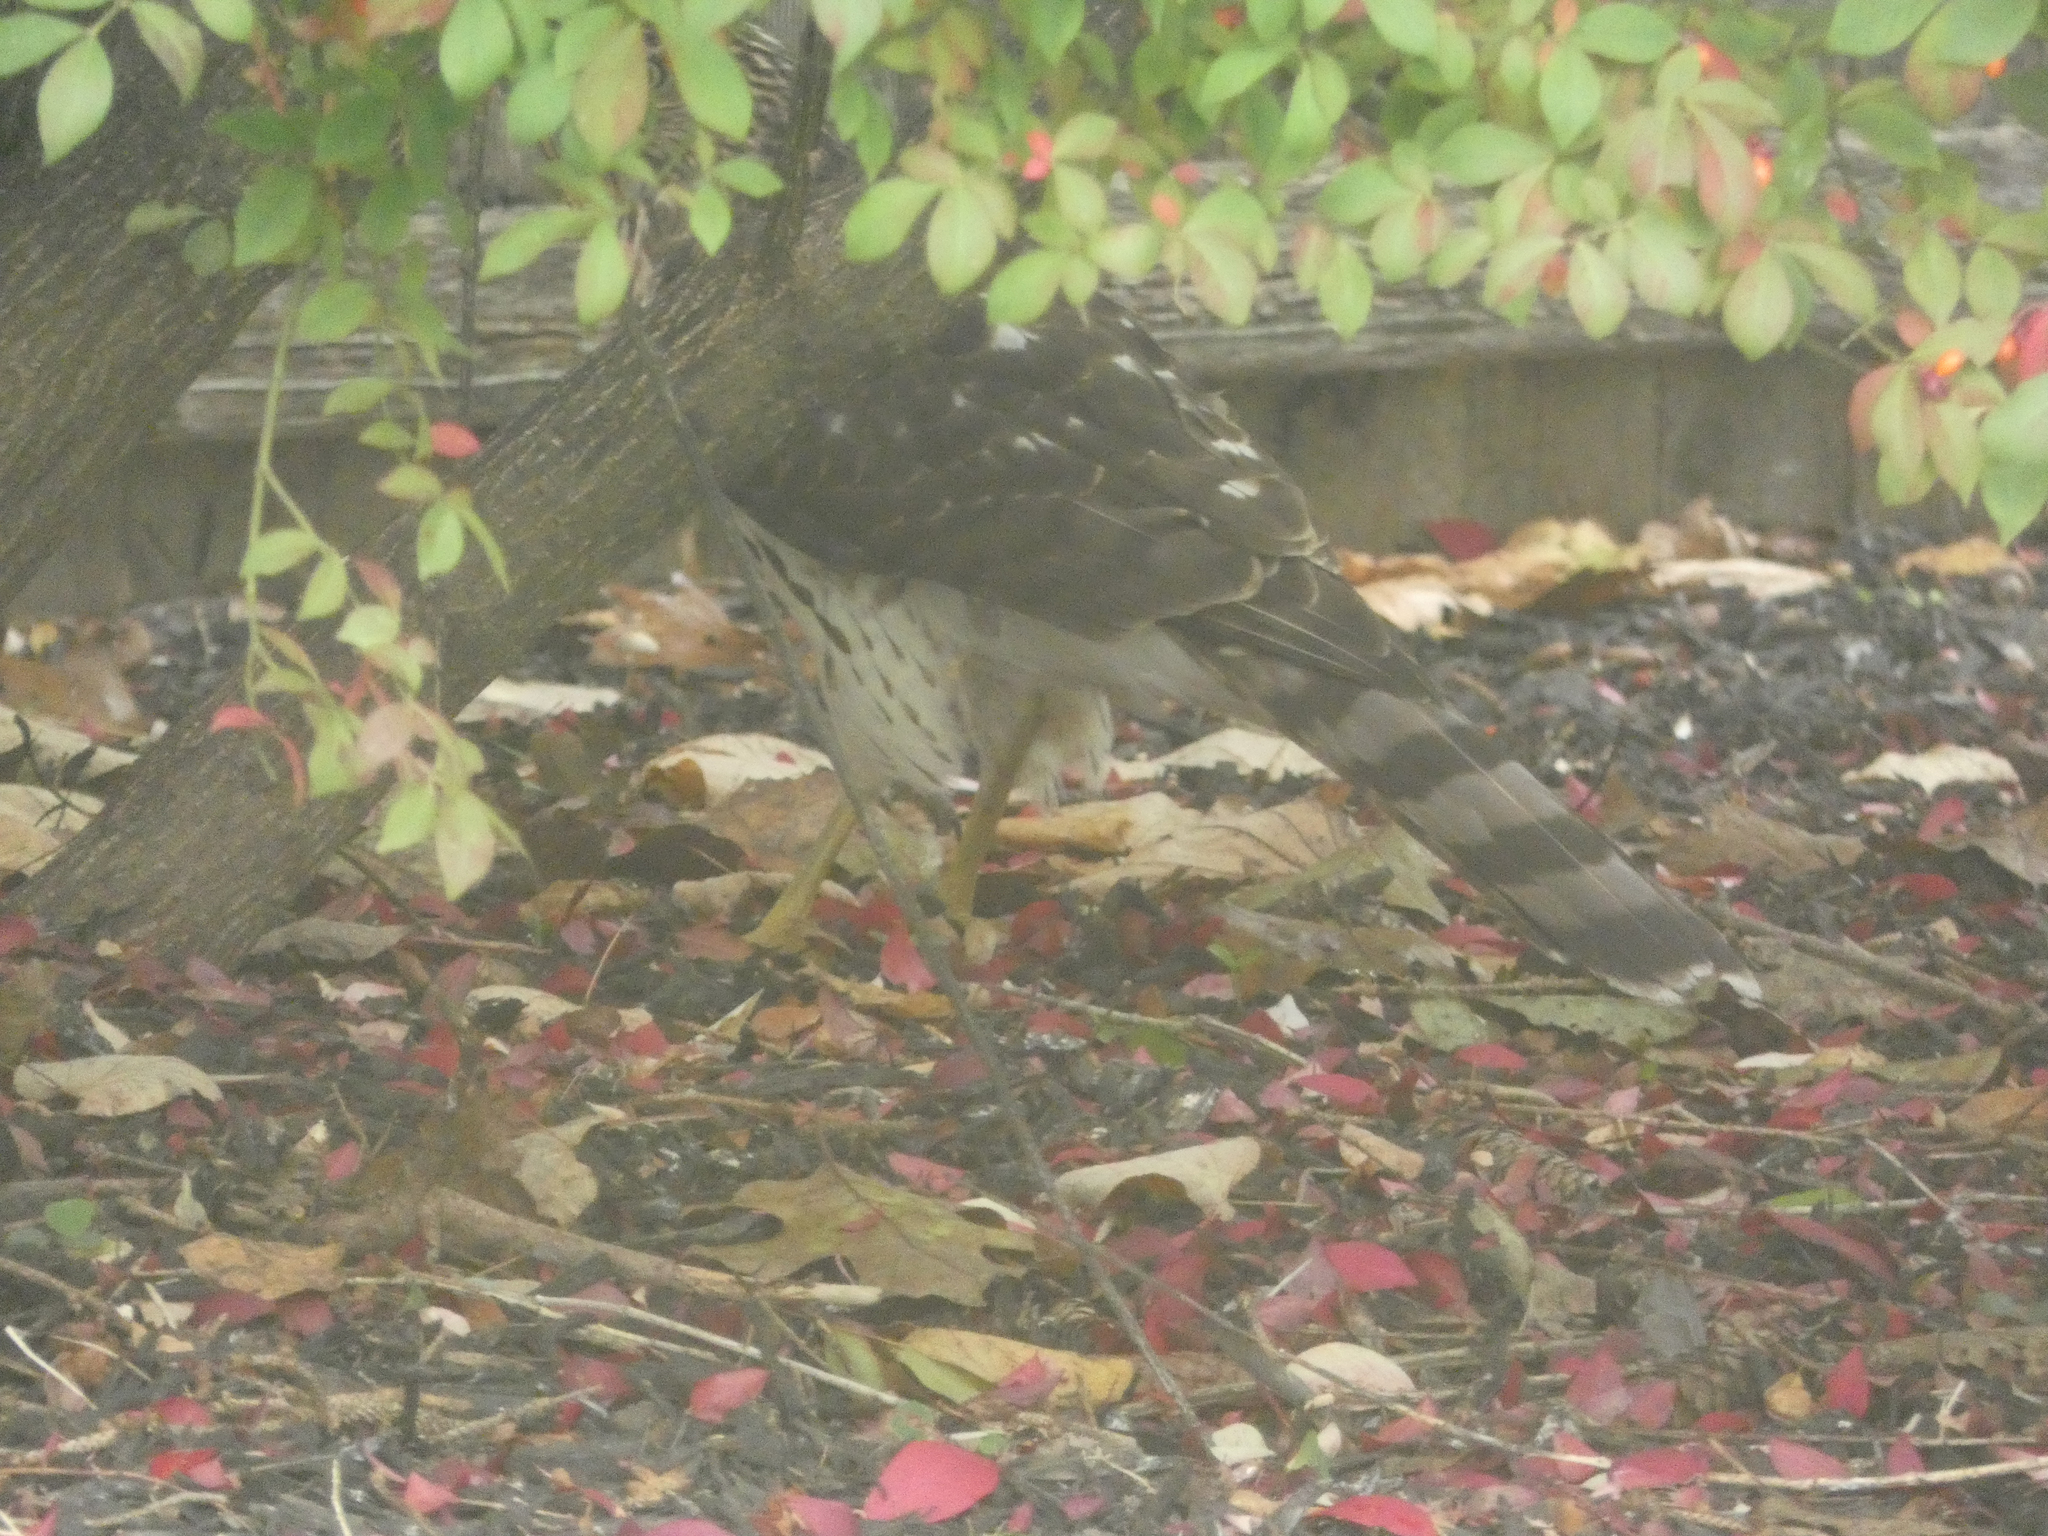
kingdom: Animalia
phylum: Chordata
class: Aves
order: Accipitriformes
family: Accipitridae
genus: Accipiter
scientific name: Accipiter cooperii
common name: Cooper's hawk
